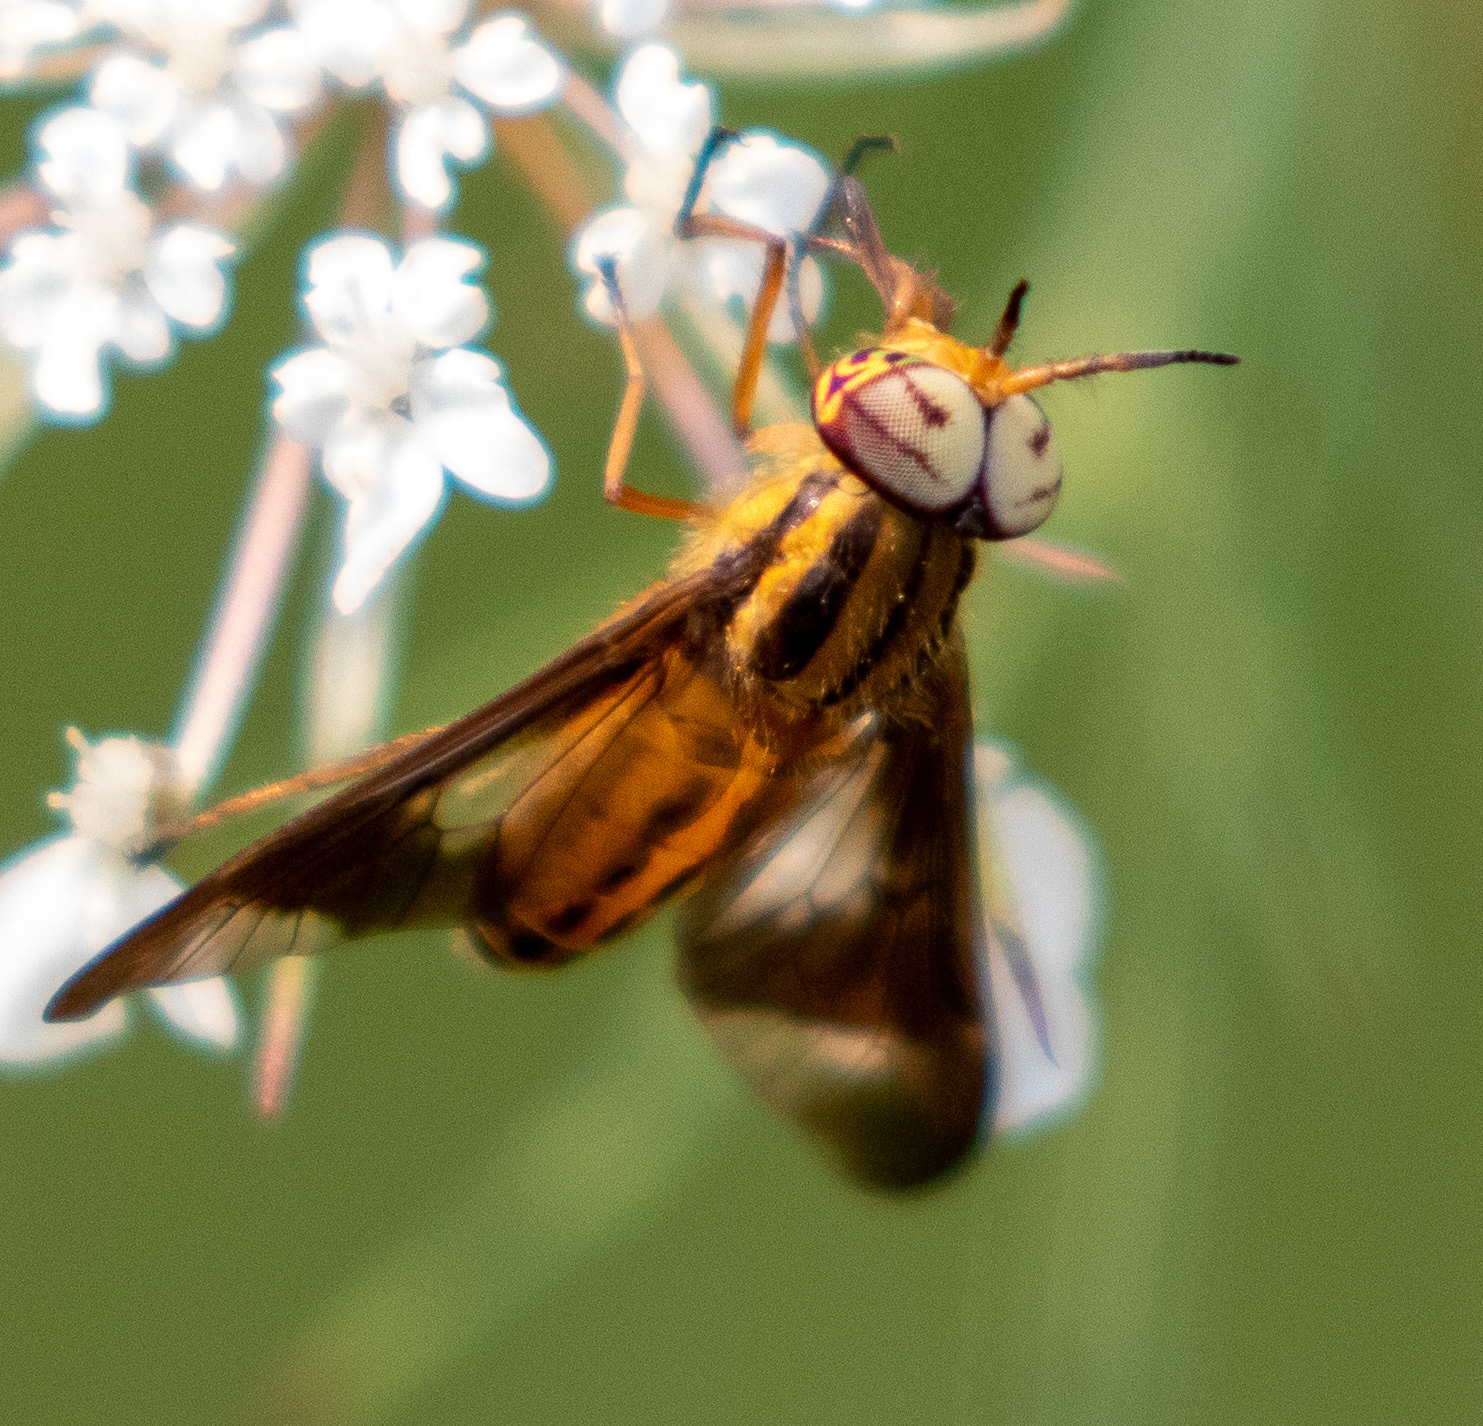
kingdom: Animalia
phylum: Arthropoda
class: Insecta
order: Diptera
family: Tabanidae
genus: Chrysops
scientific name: Chrysops vittatus
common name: Striped deer fly
